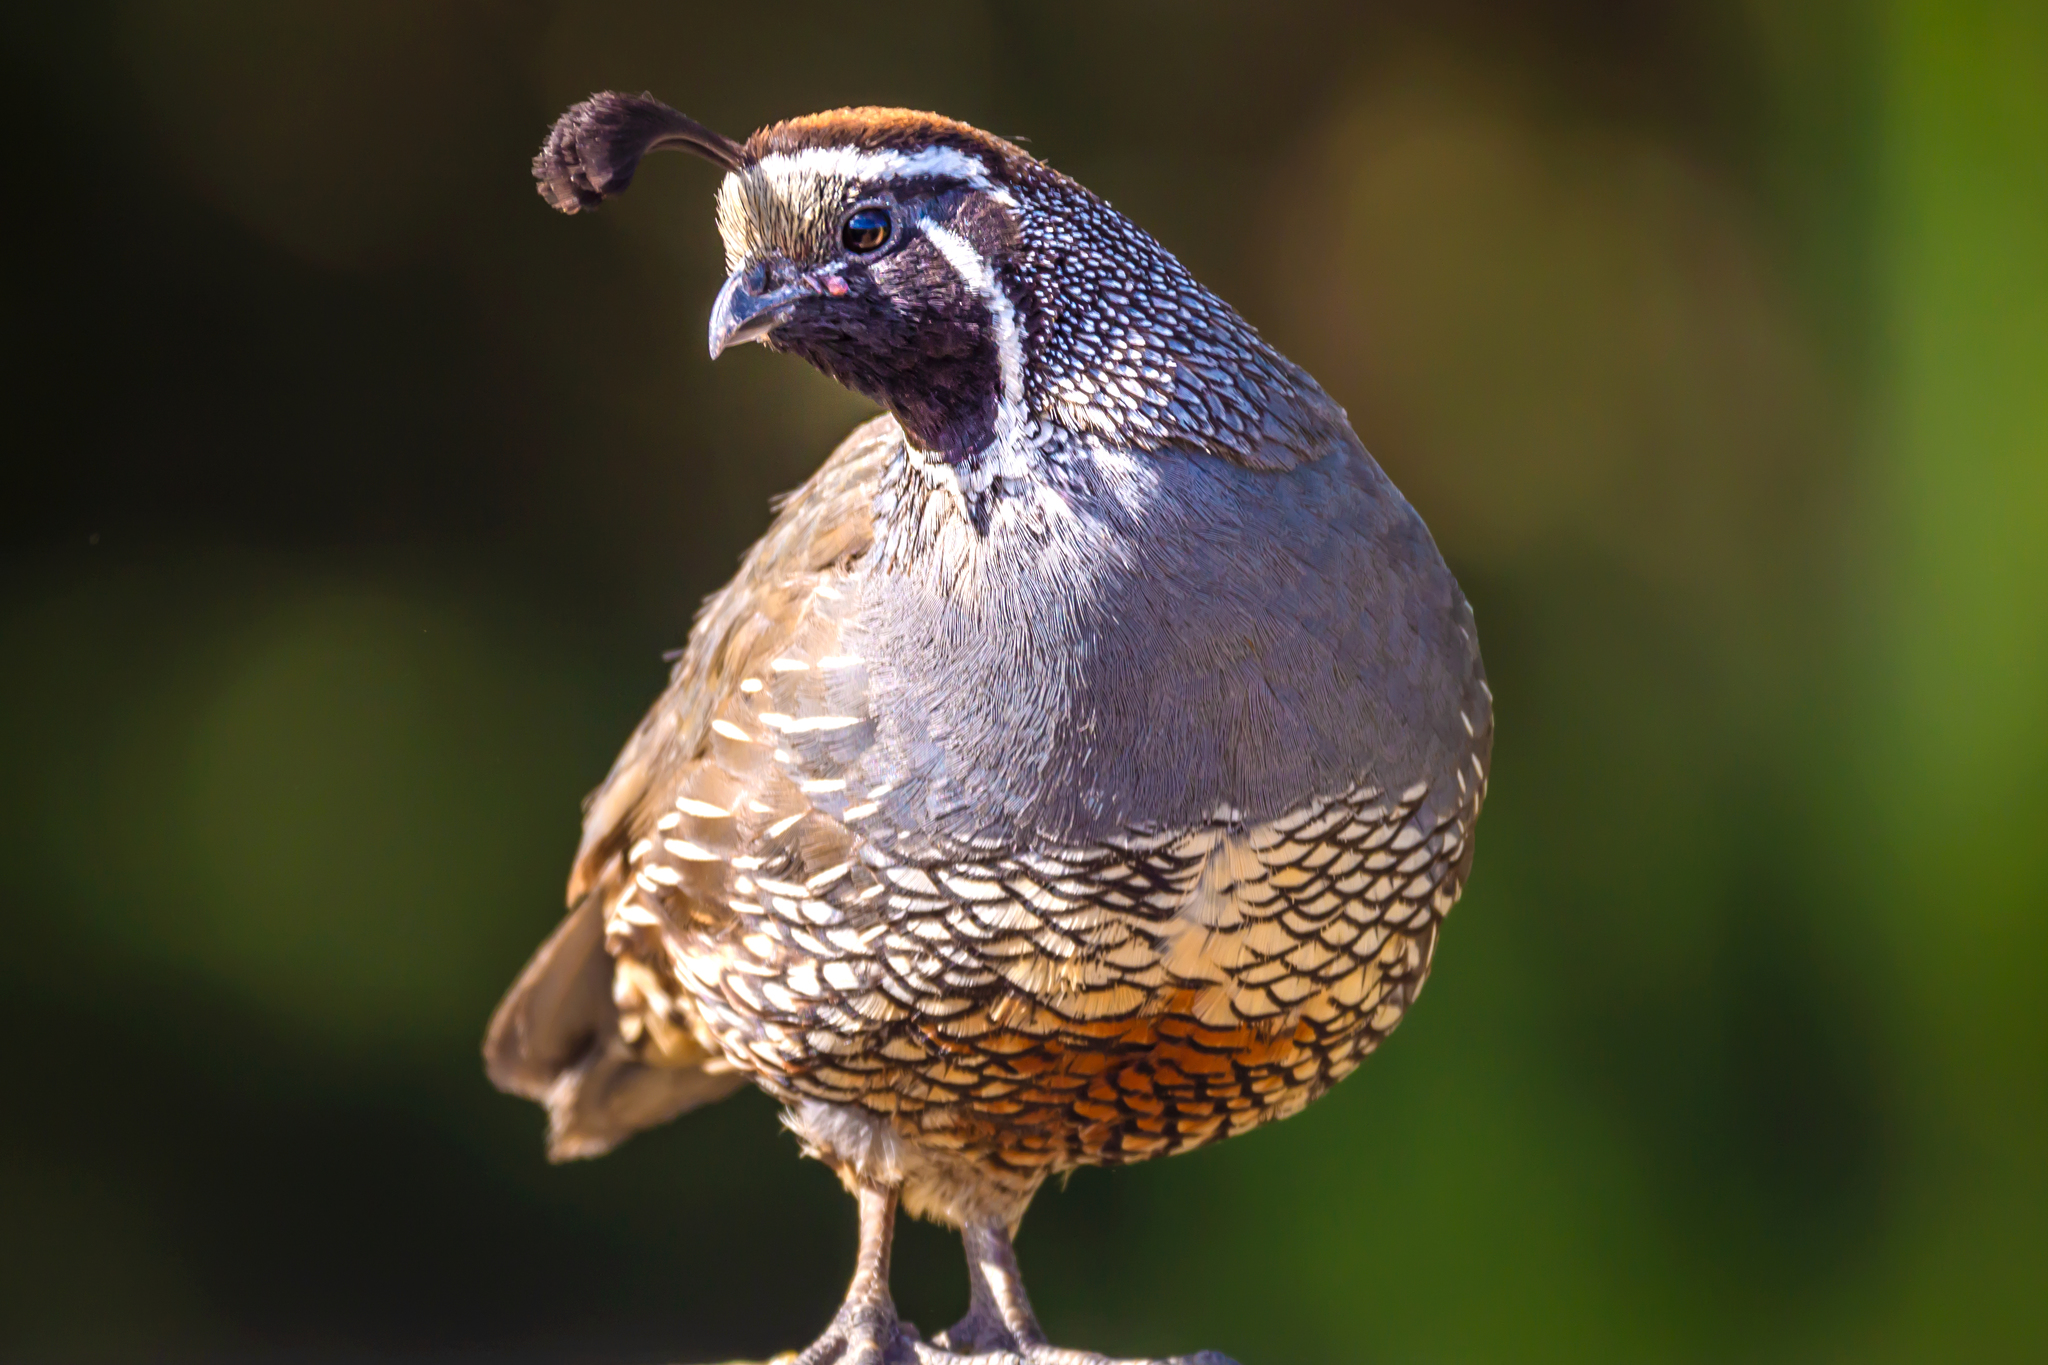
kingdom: Animalia
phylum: Chordata
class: Aves
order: Galliformes
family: Odontophoridae
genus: Callipepla
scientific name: Callipepla californica
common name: California quail
